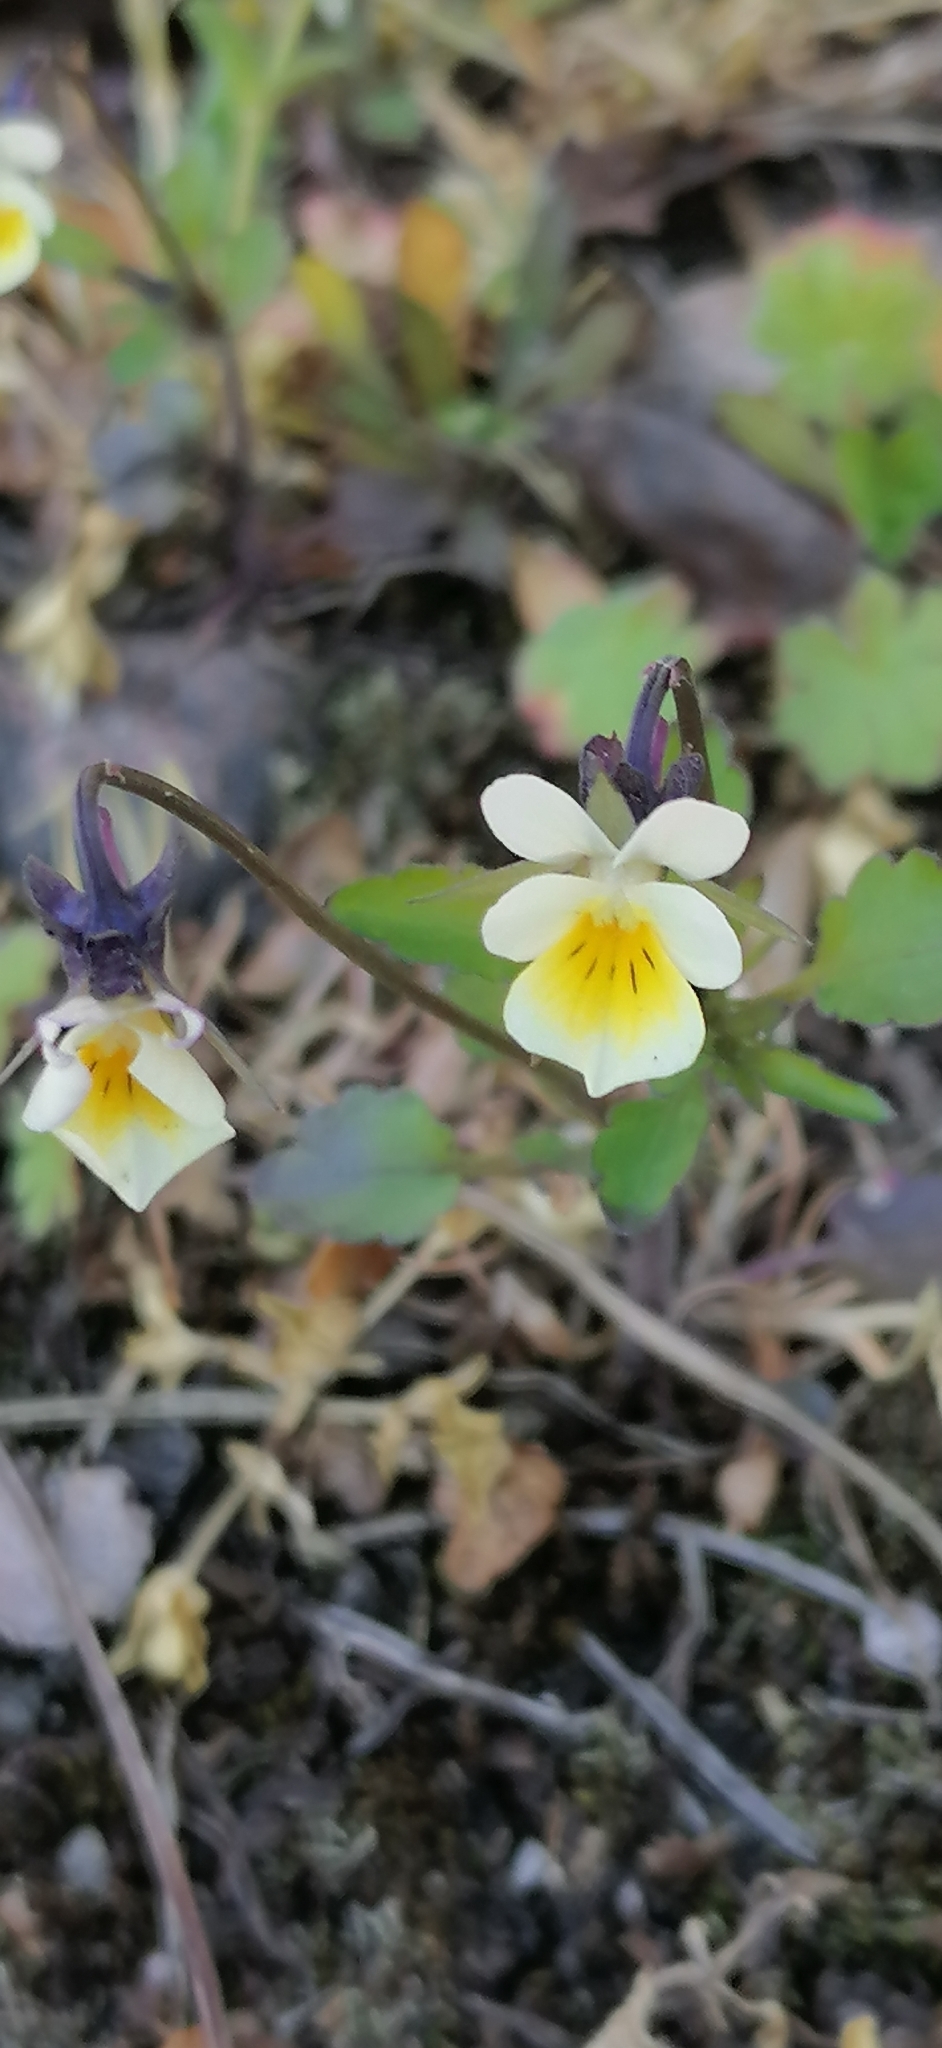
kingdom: Plantae
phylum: Tracheophyta
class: Magnoliopsida
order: Malpighiales
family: Violaceae
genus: Viola
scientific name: Viola arvensis
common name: Field pansy
